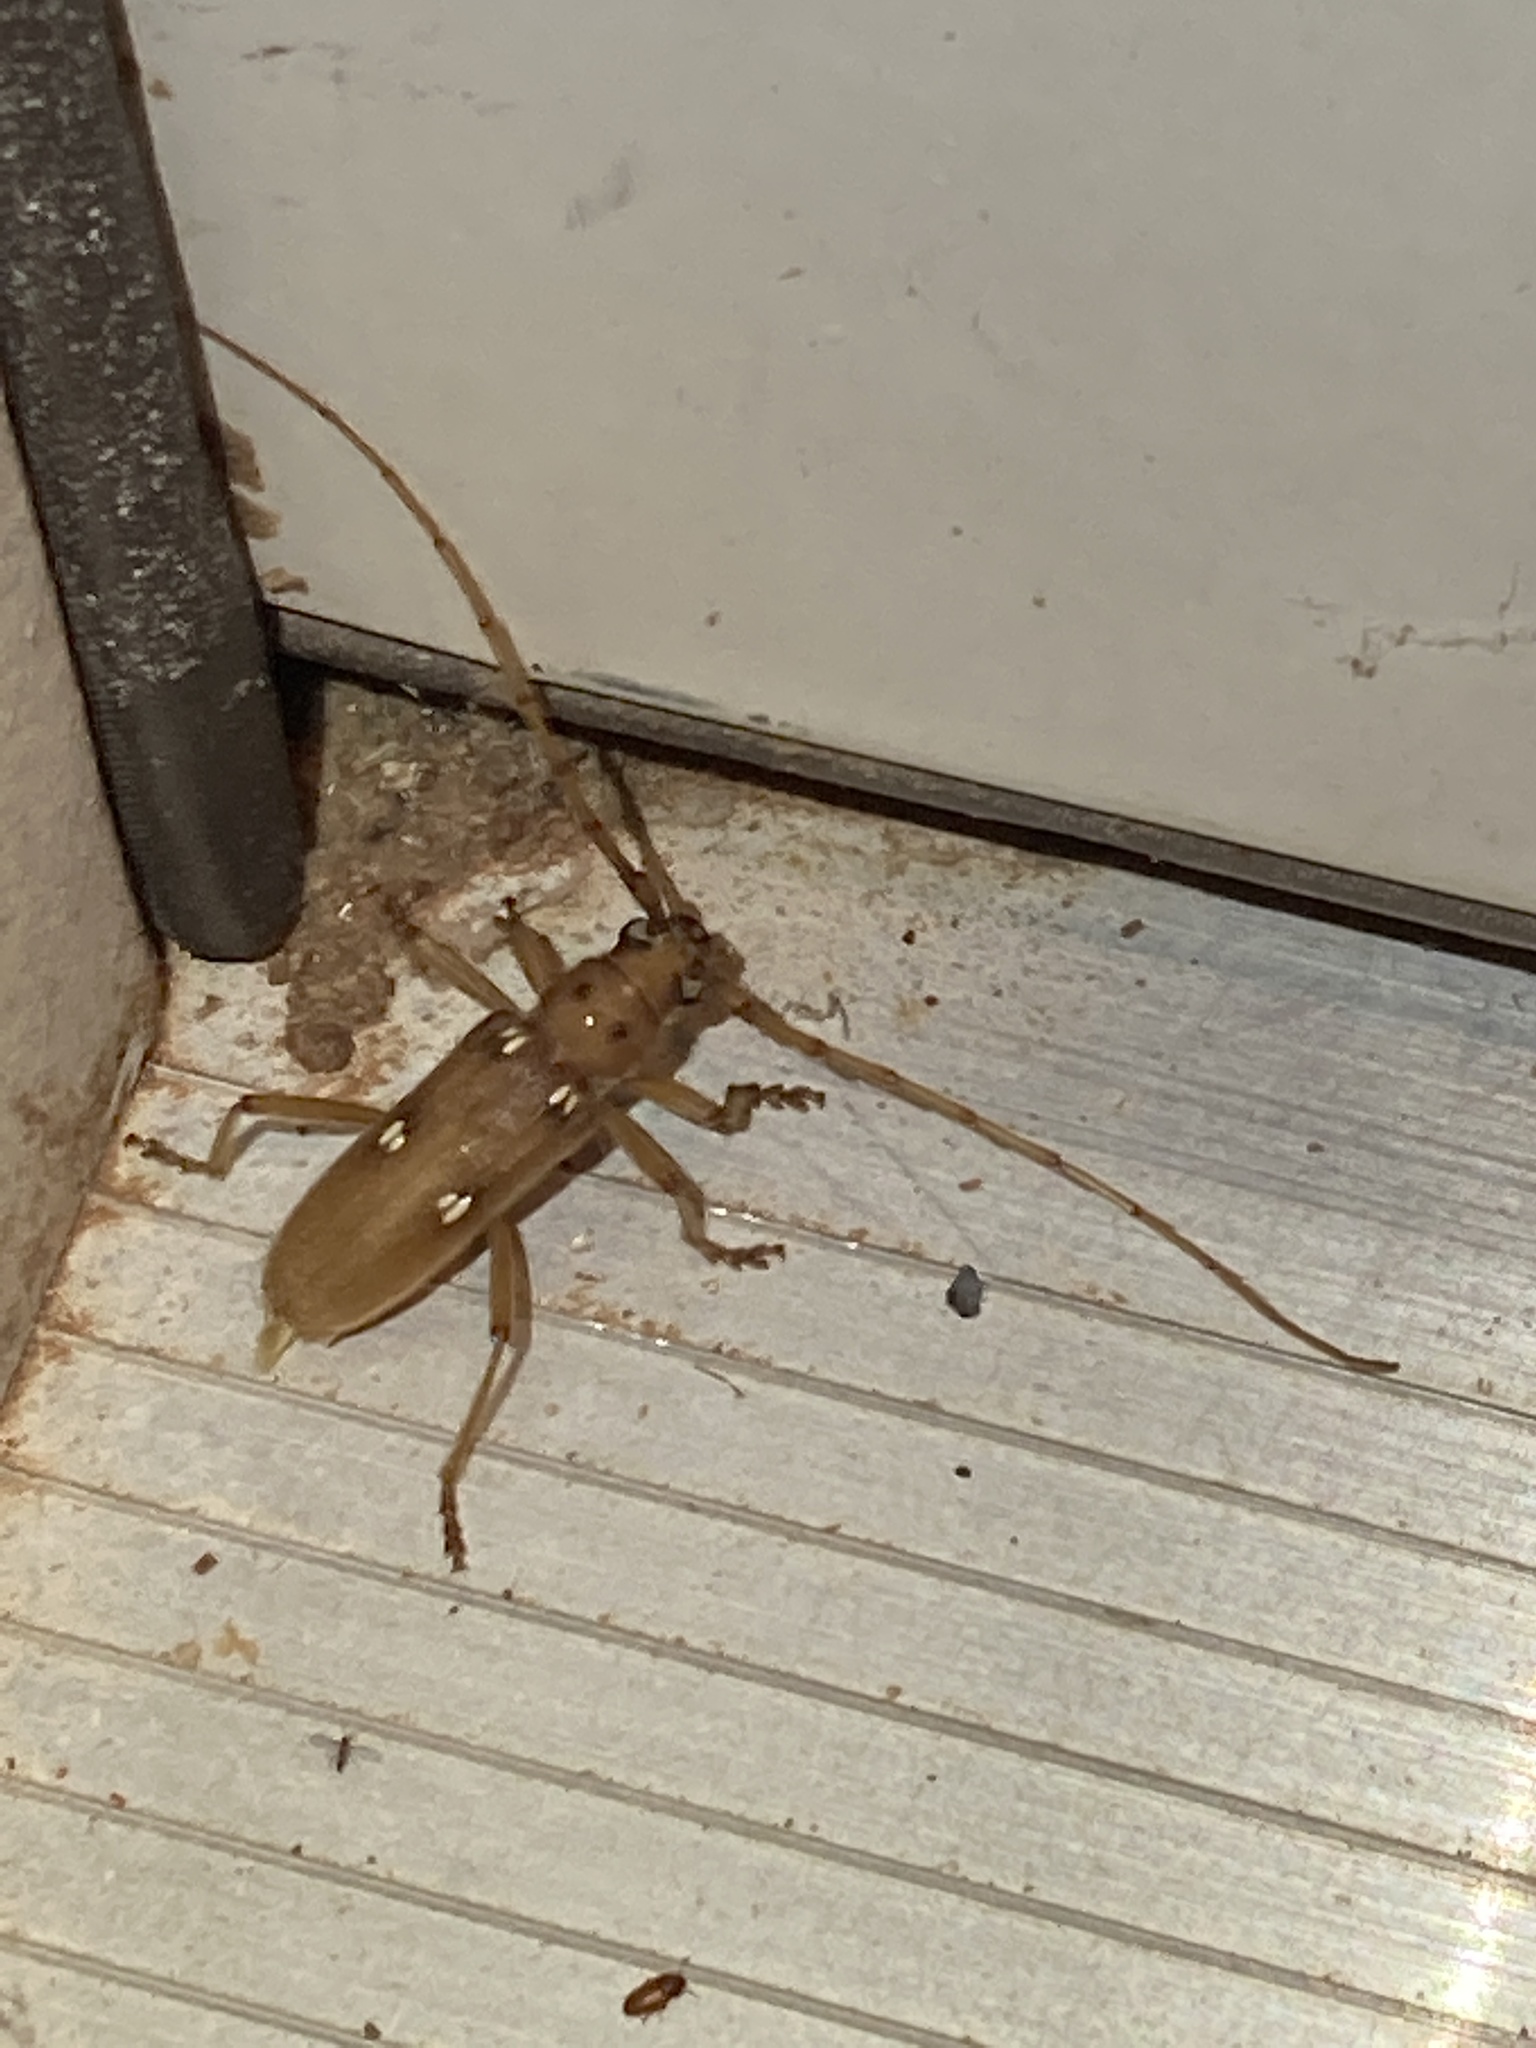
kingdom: Animalia
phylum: Arthropoda
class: Insecta
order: Coleoptera
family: Cerambycidae
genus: Eburia
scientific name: Eburia quadrigeminata
